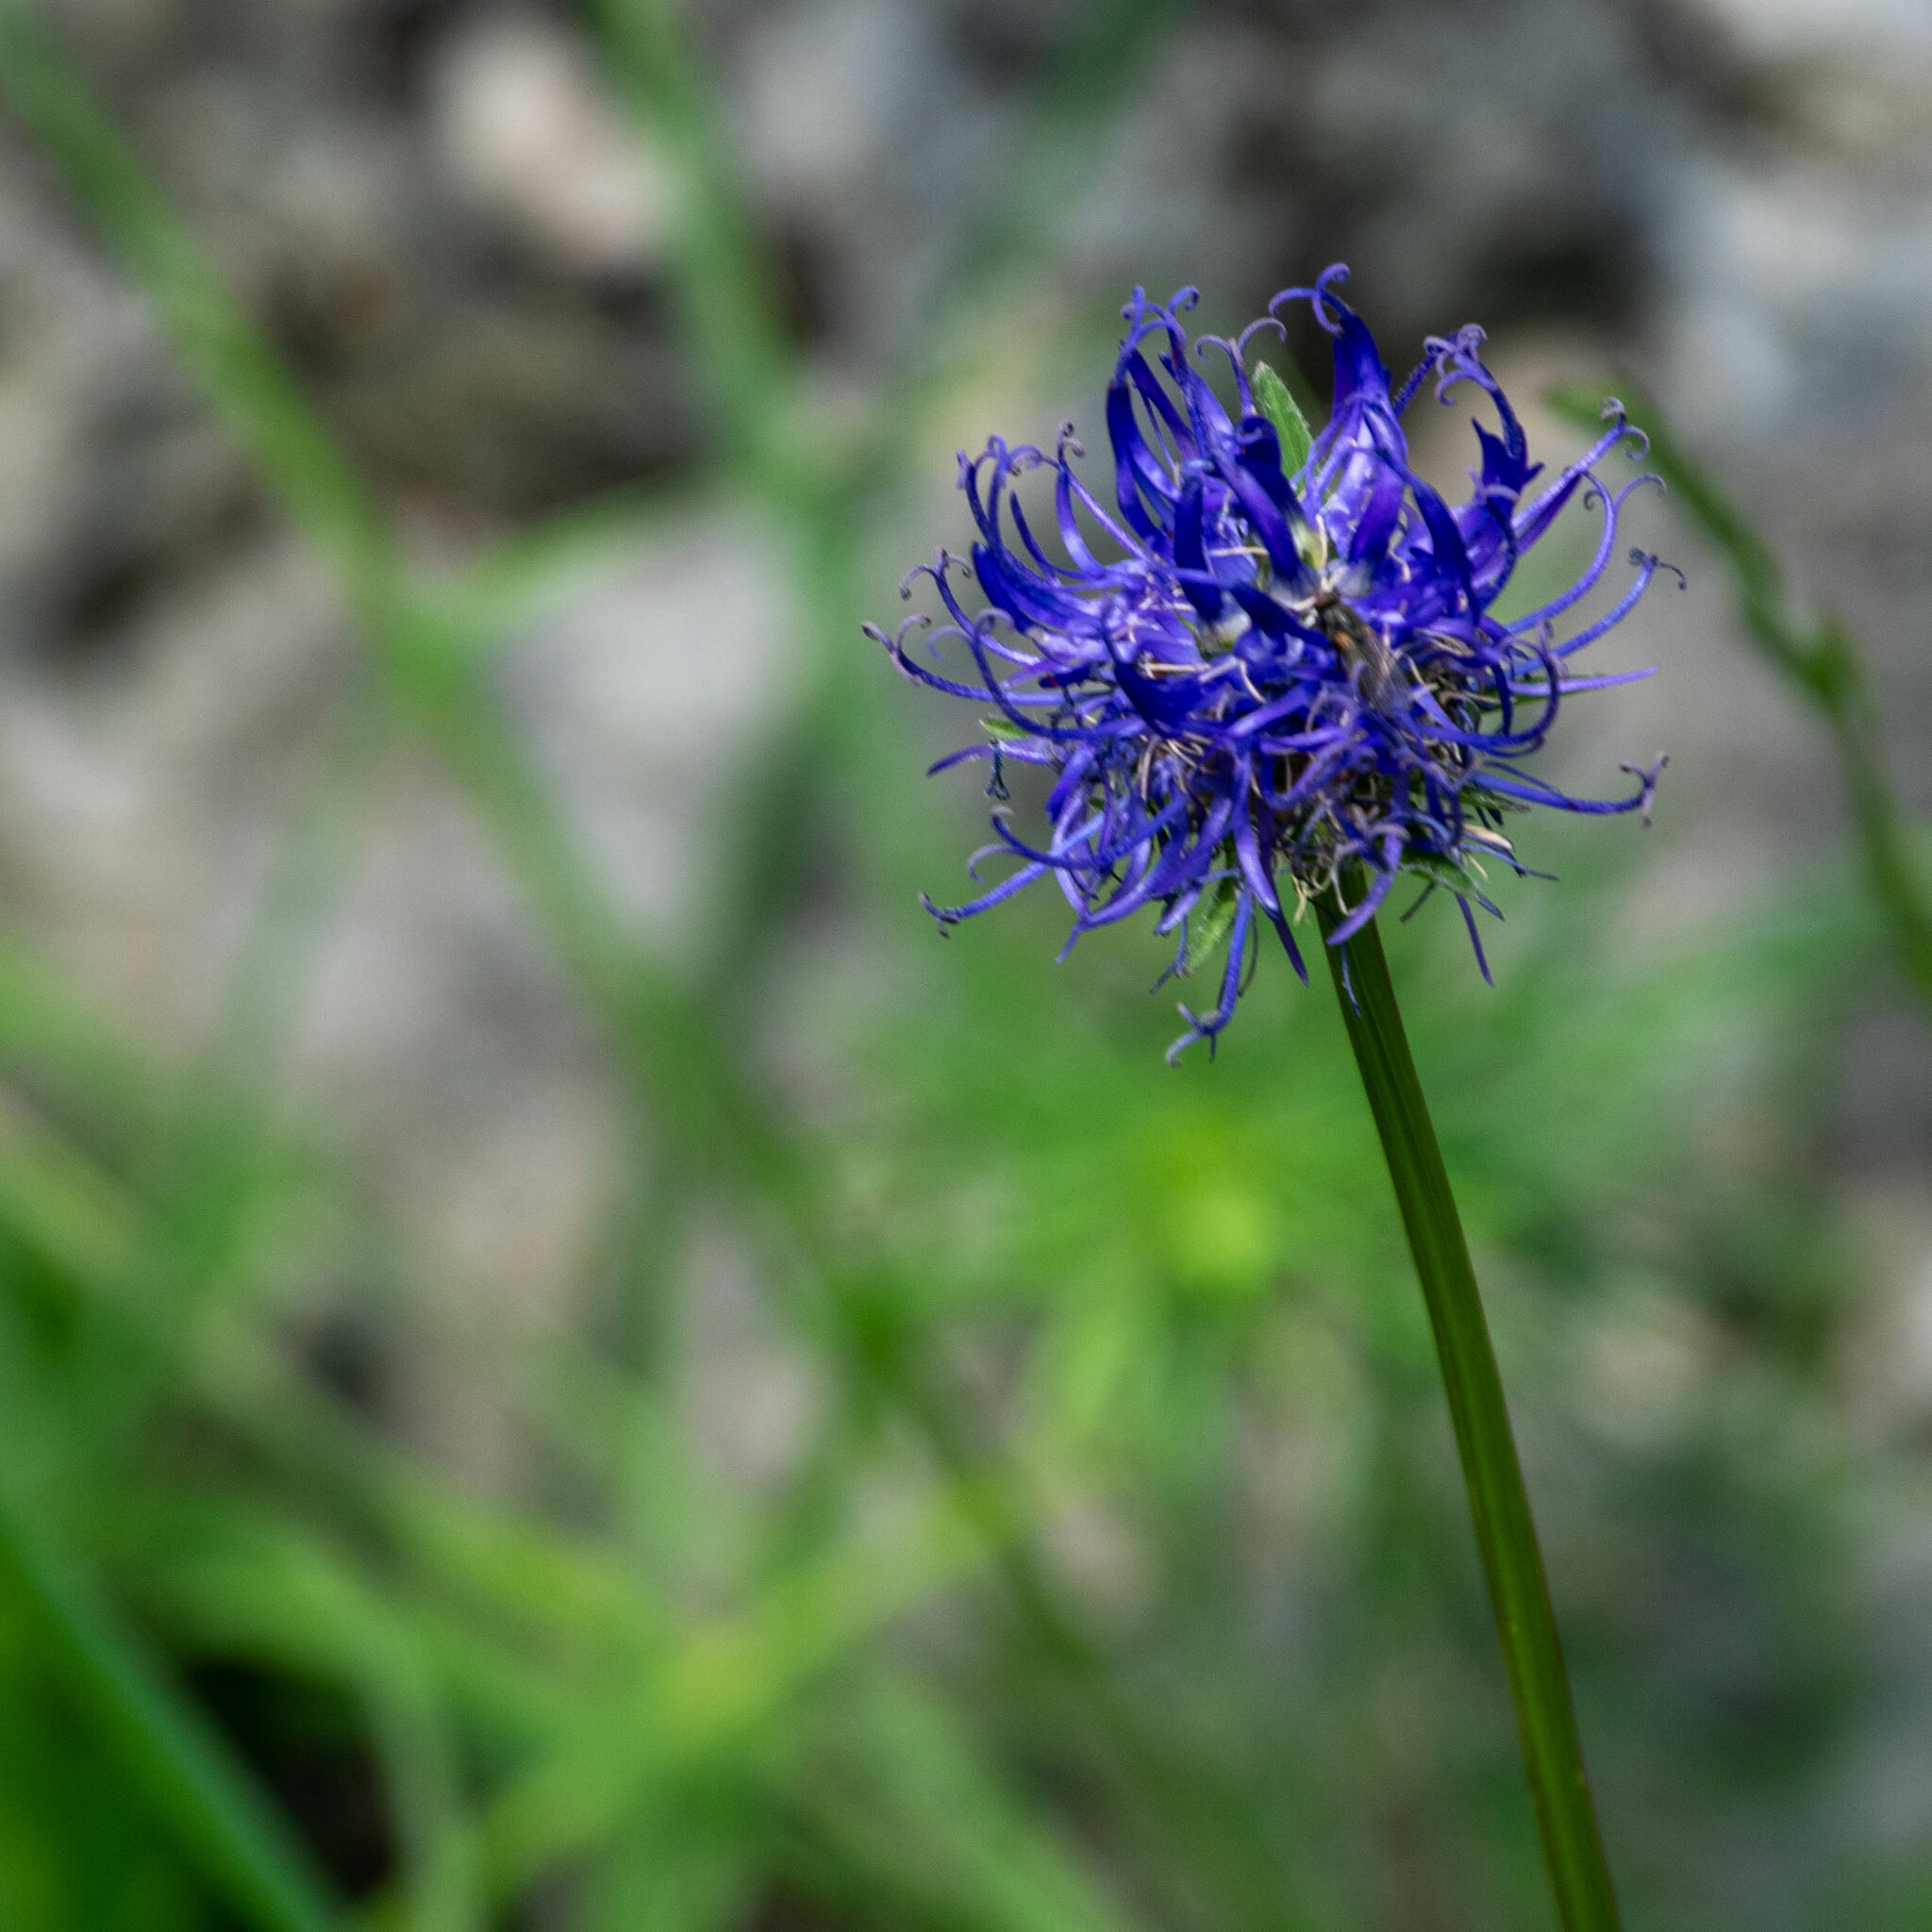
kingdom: Plantae
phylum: Tracheophyta
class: Magnoliopsida
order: Asterales
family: Campanulaceae
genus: Phyteuma
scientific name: Phyteuma orbiculare
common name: Round-headed rampion
